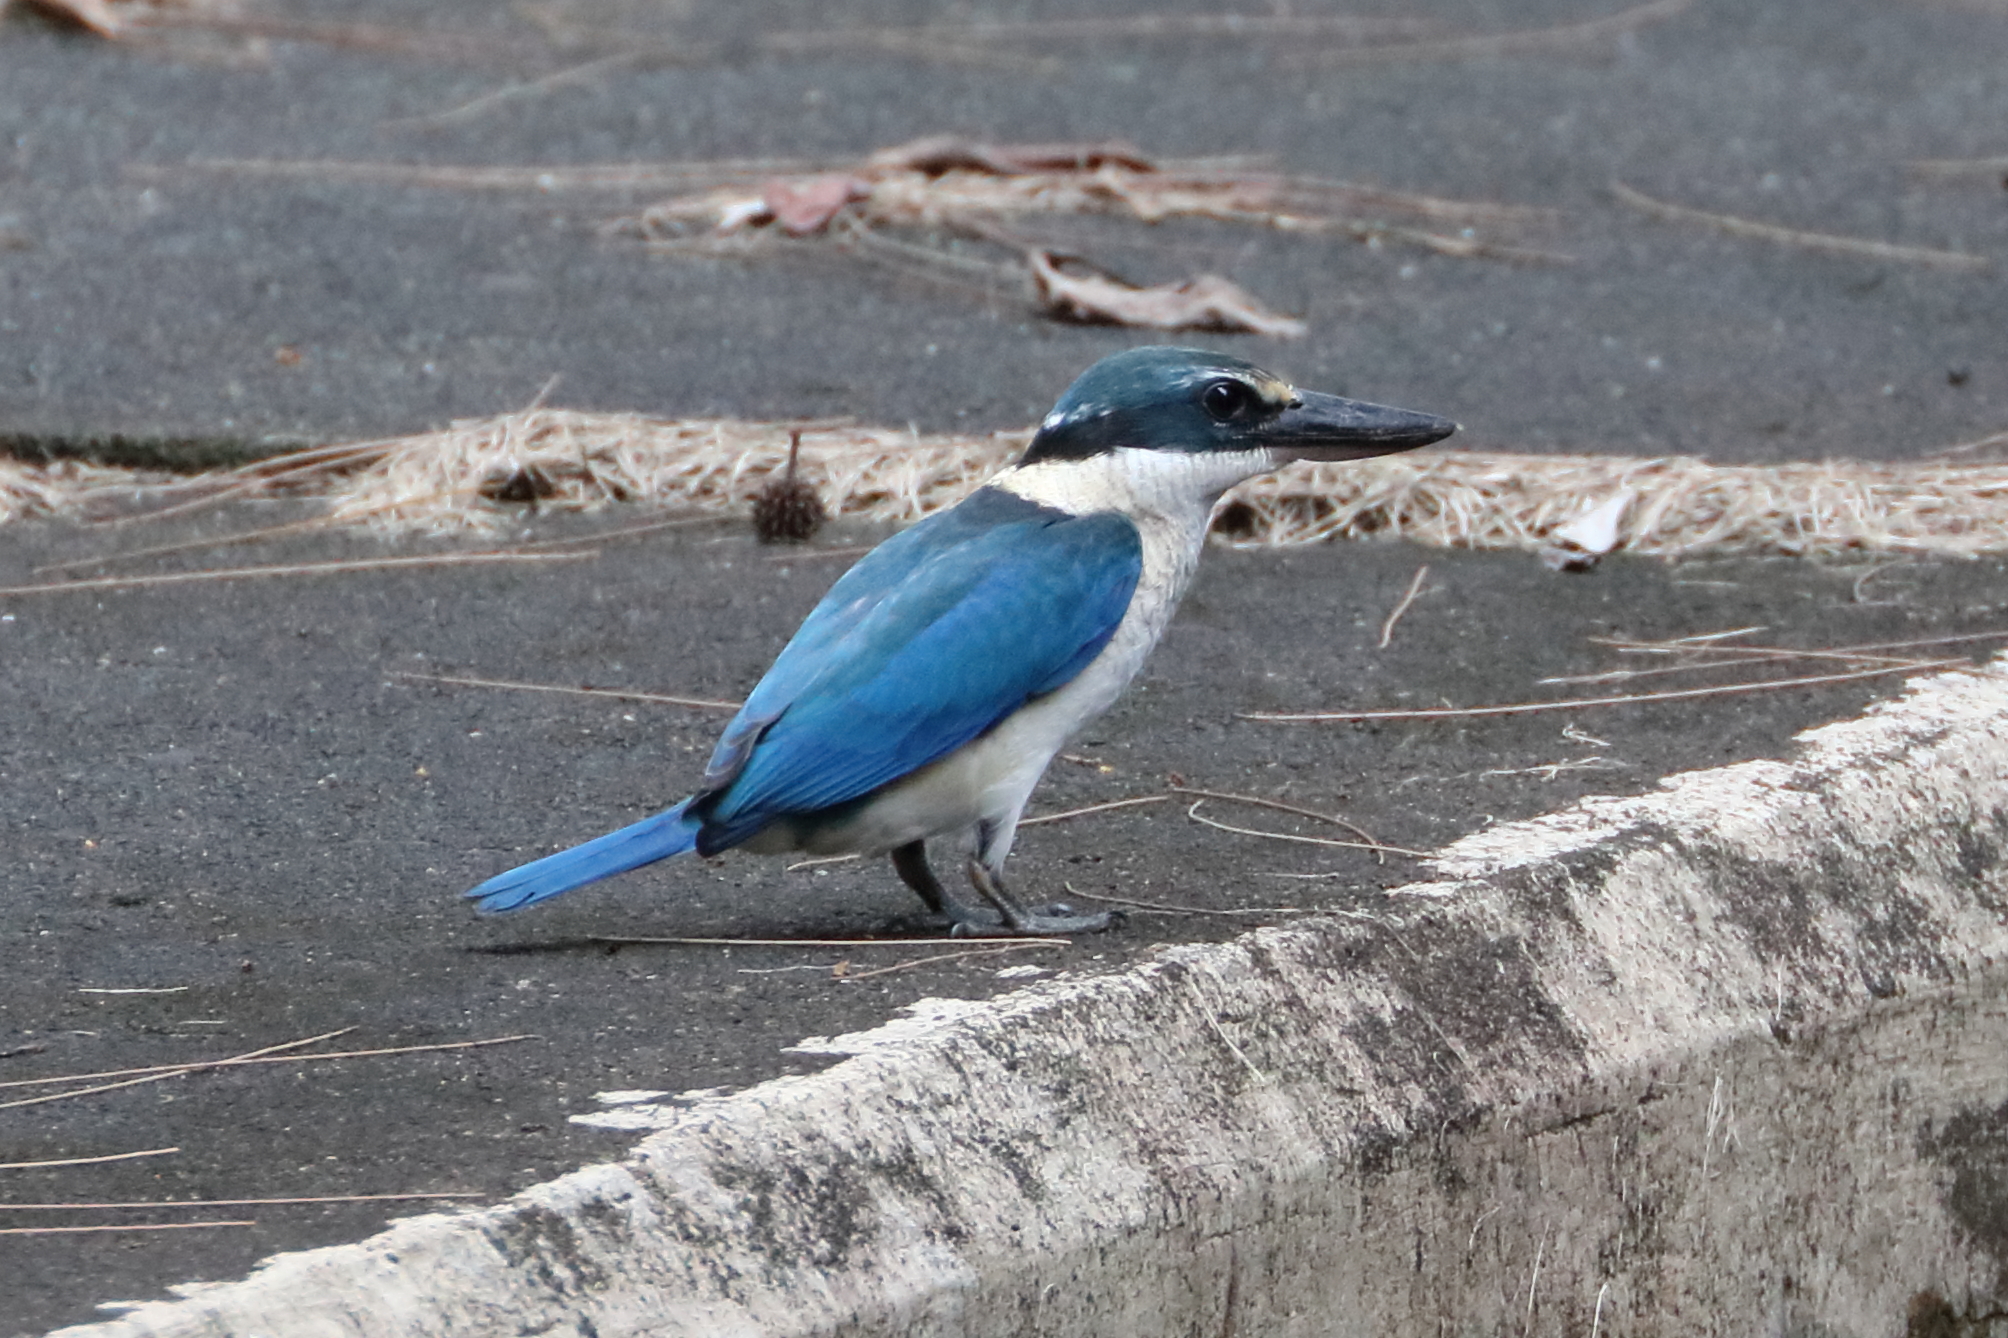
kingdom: Animalia
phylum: Chordata
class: Aves
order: Coraciiformes
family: Alcedinidae
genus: Todiramphus
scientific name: Todiramphus chloris
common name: Collared kingfisher
